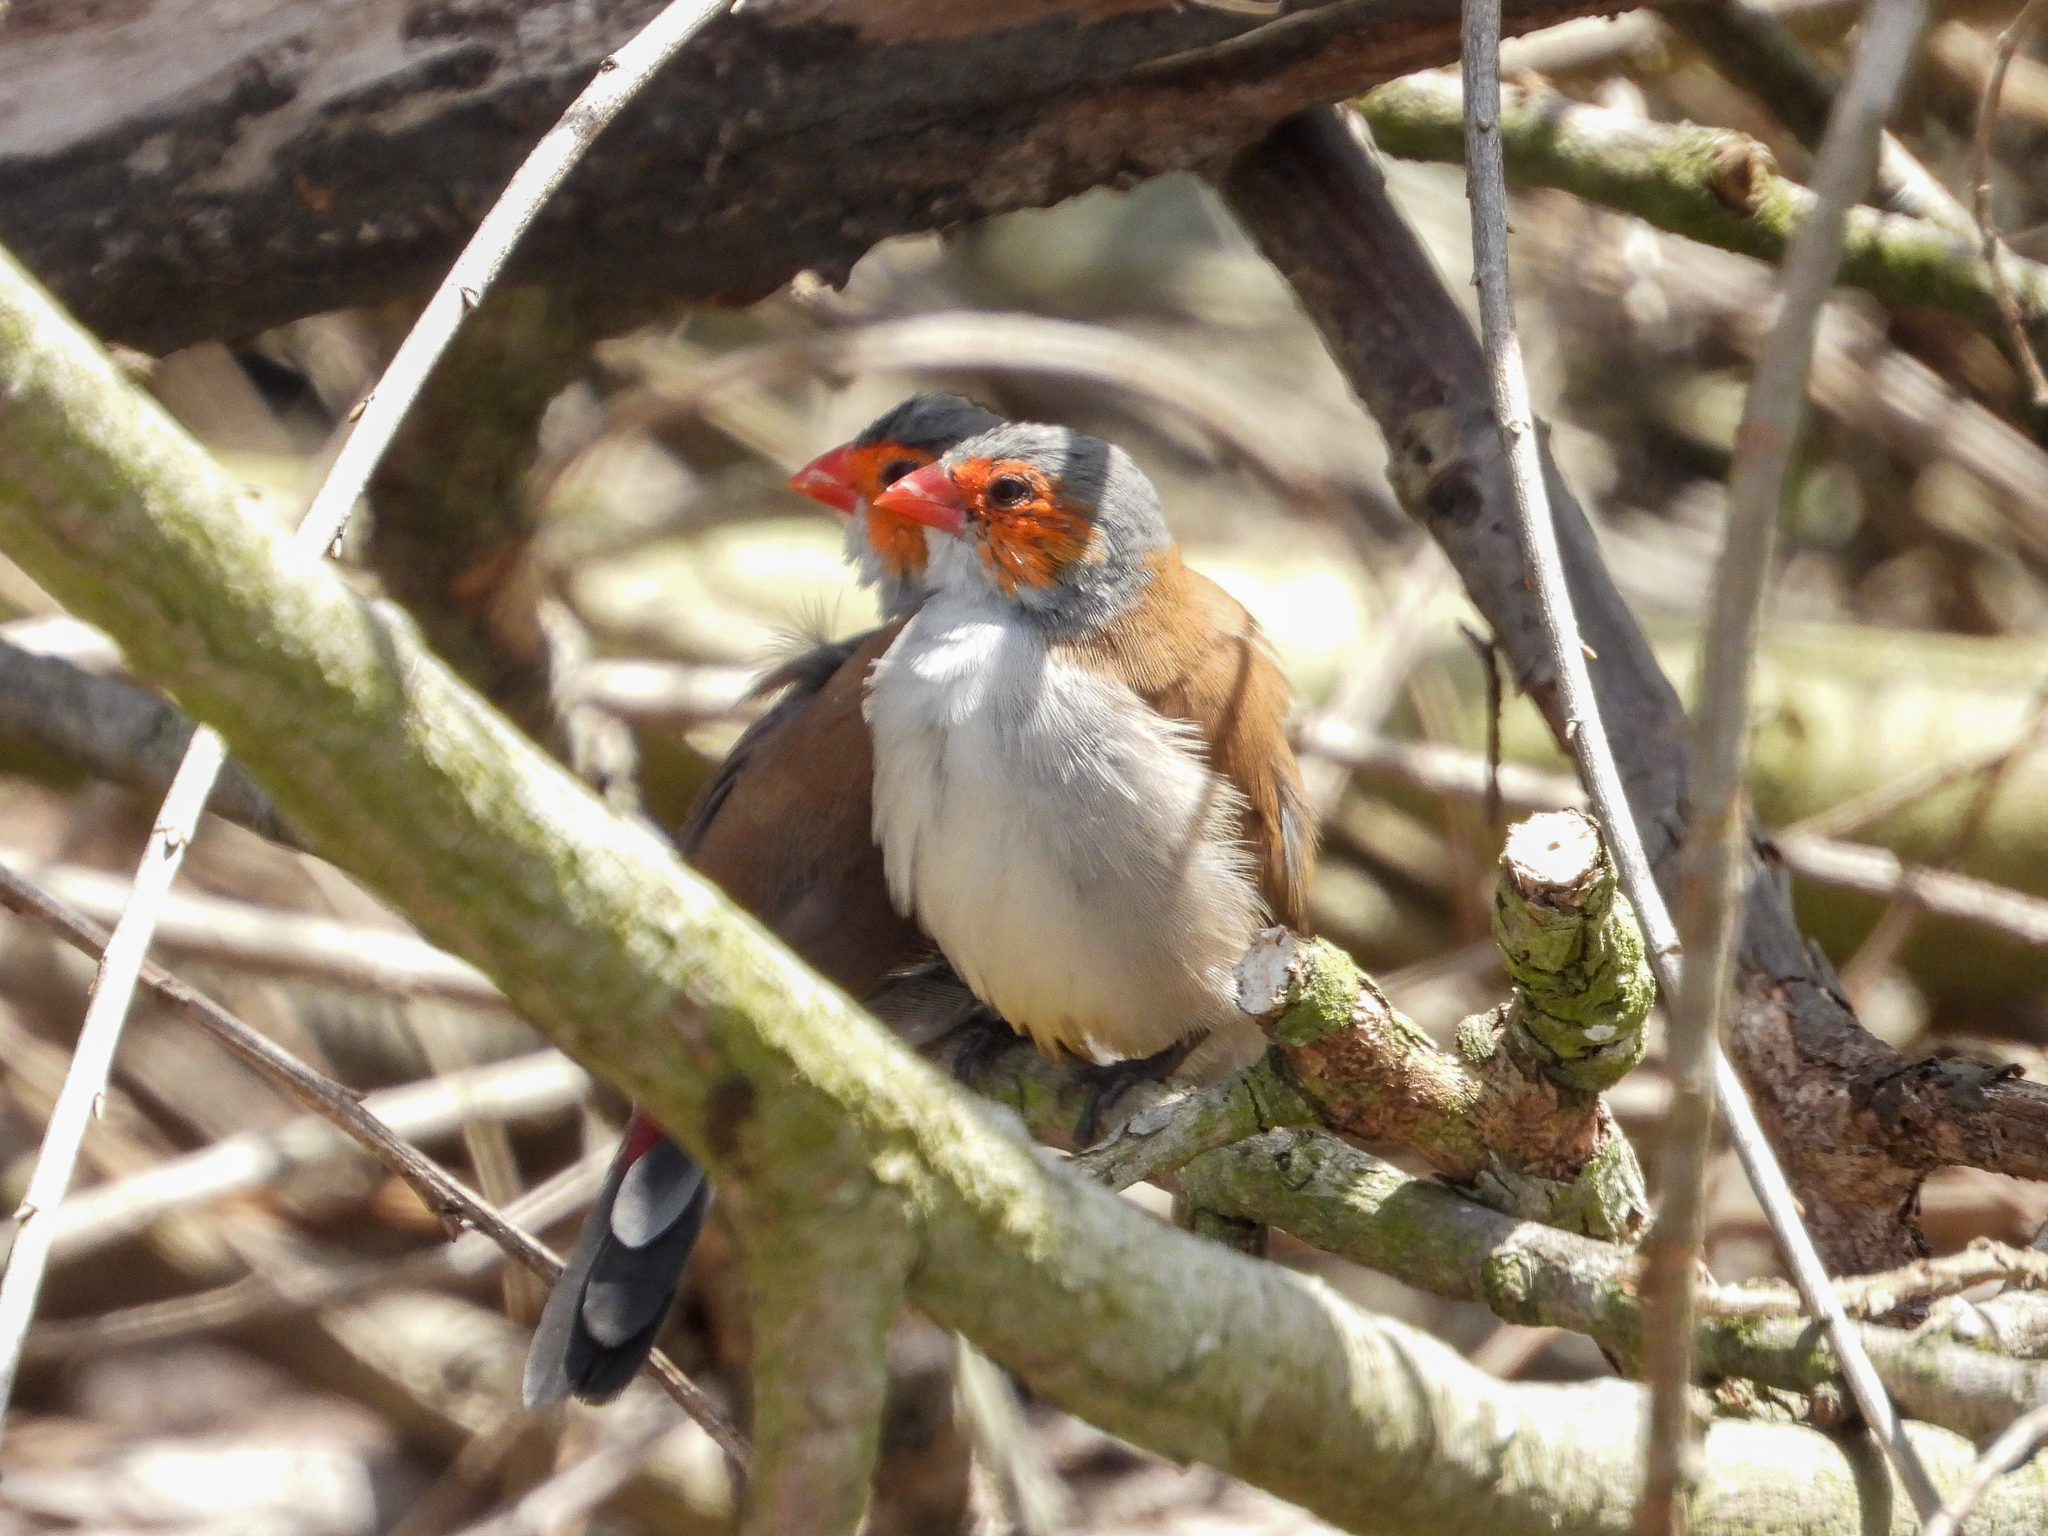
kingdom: Animalia
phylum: Chordata
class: Aves
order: Passeriformes
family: Estrildidae
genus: Estrilda
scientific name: Estrilda melpoda
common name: Orange-cheeked waxbill
